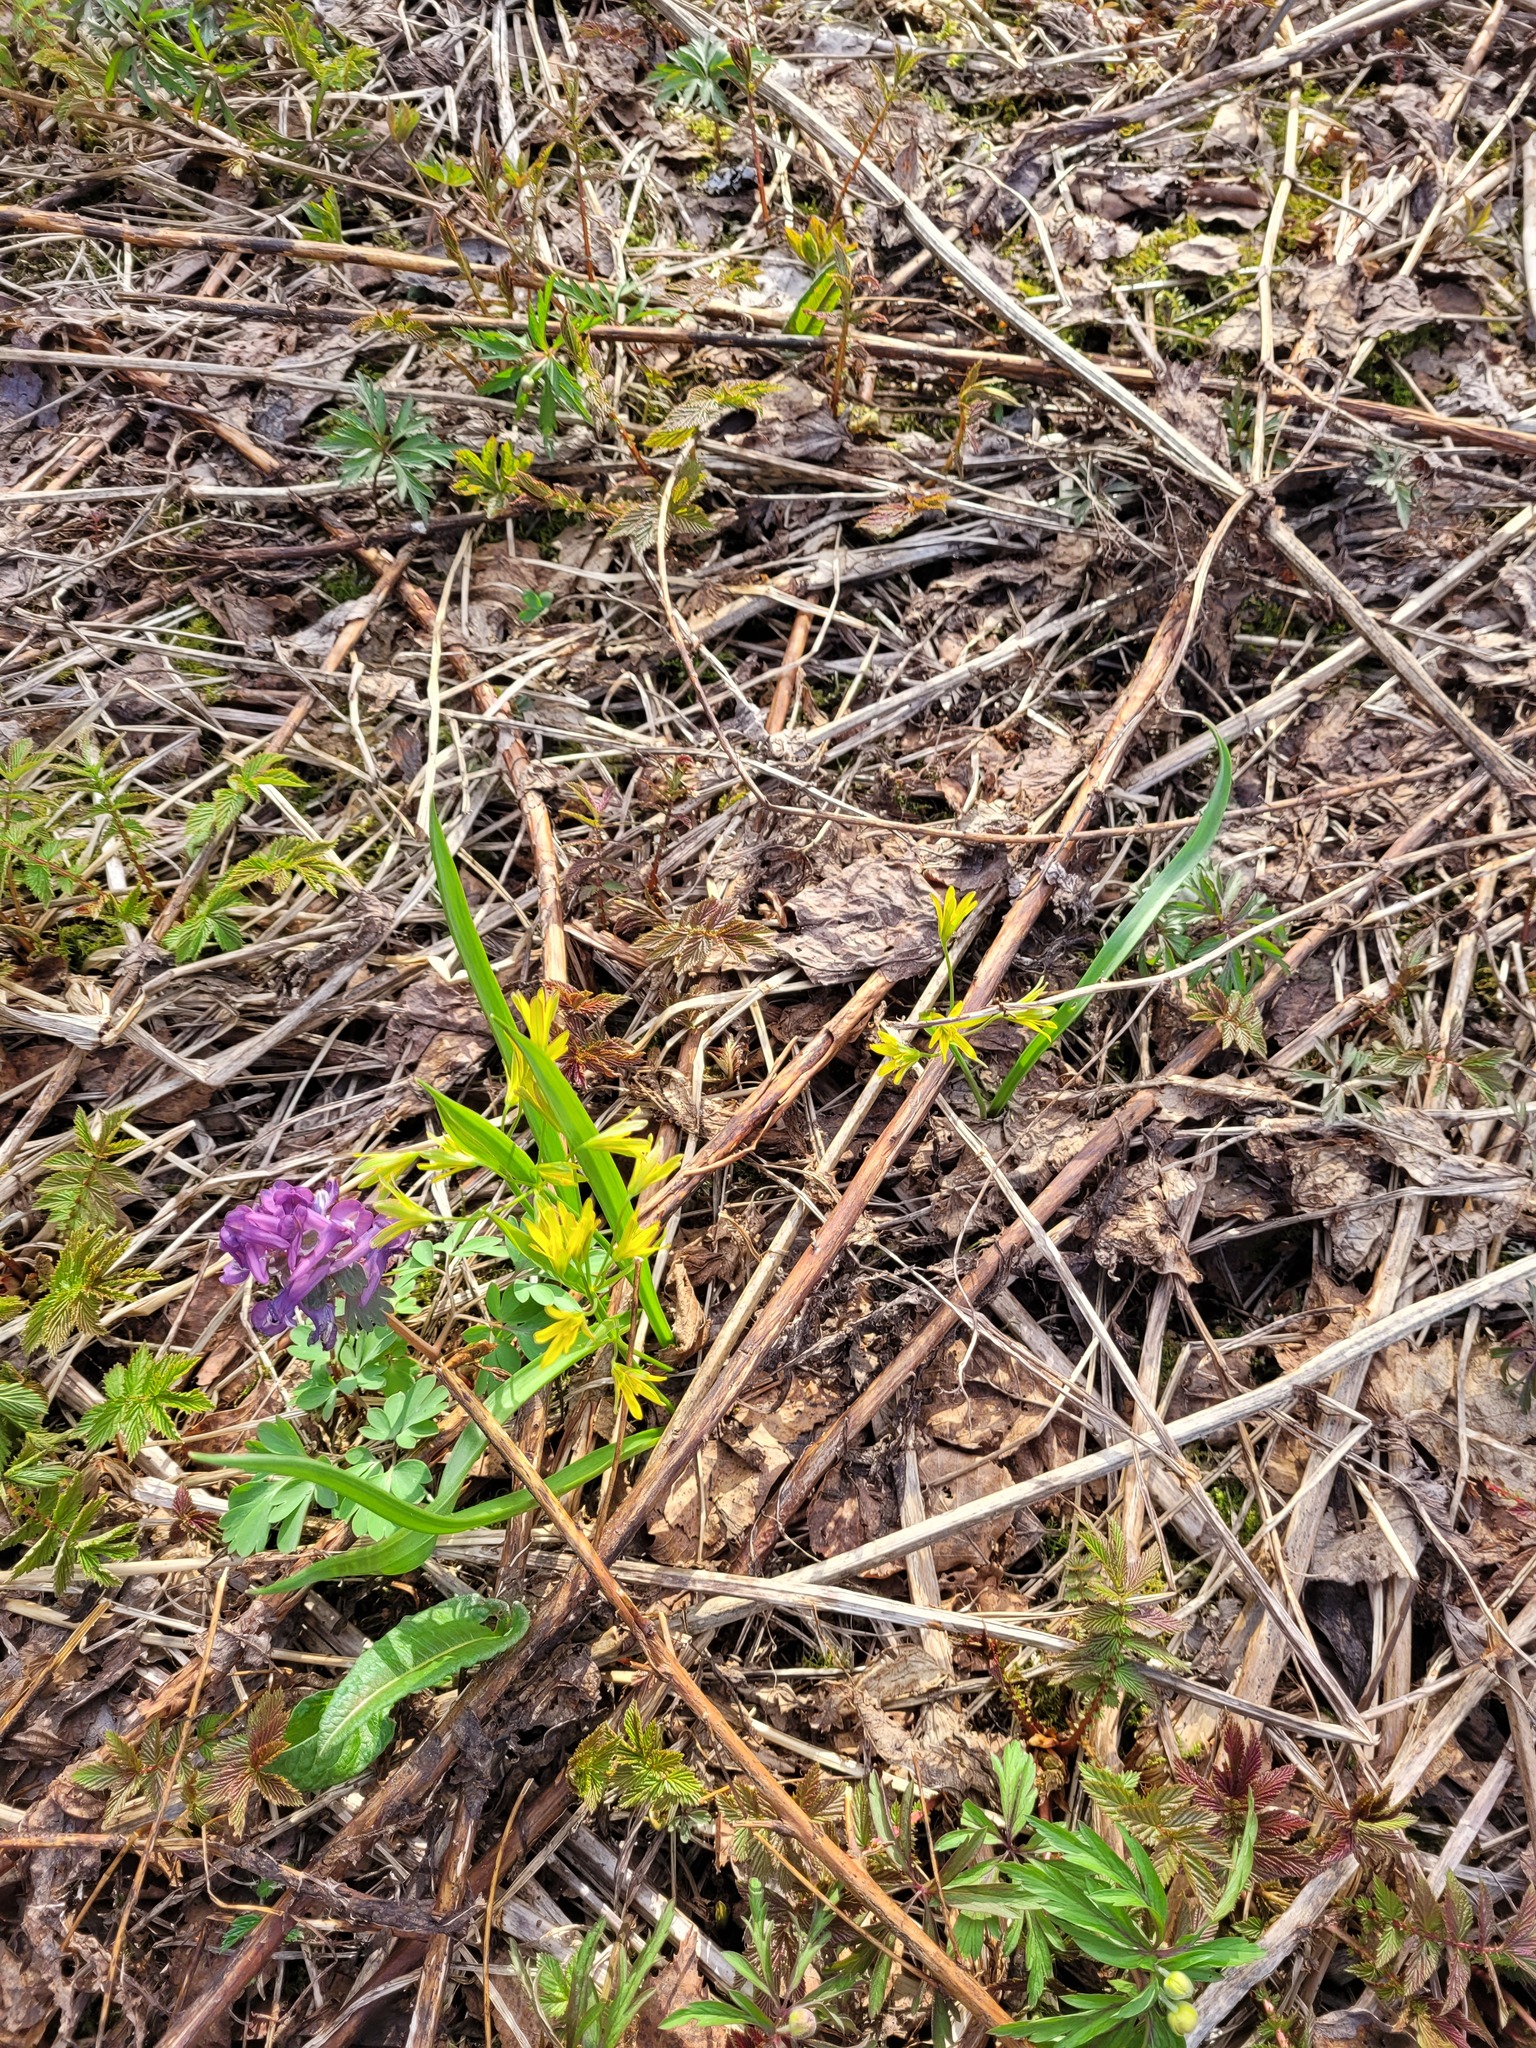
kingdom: Plantae
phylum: Tracheophyta
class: Liliopsida
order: Liliales
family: Liliaceae
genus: Gagea
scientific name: Gagea lutea
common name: Yellow star-of-bethlehem
